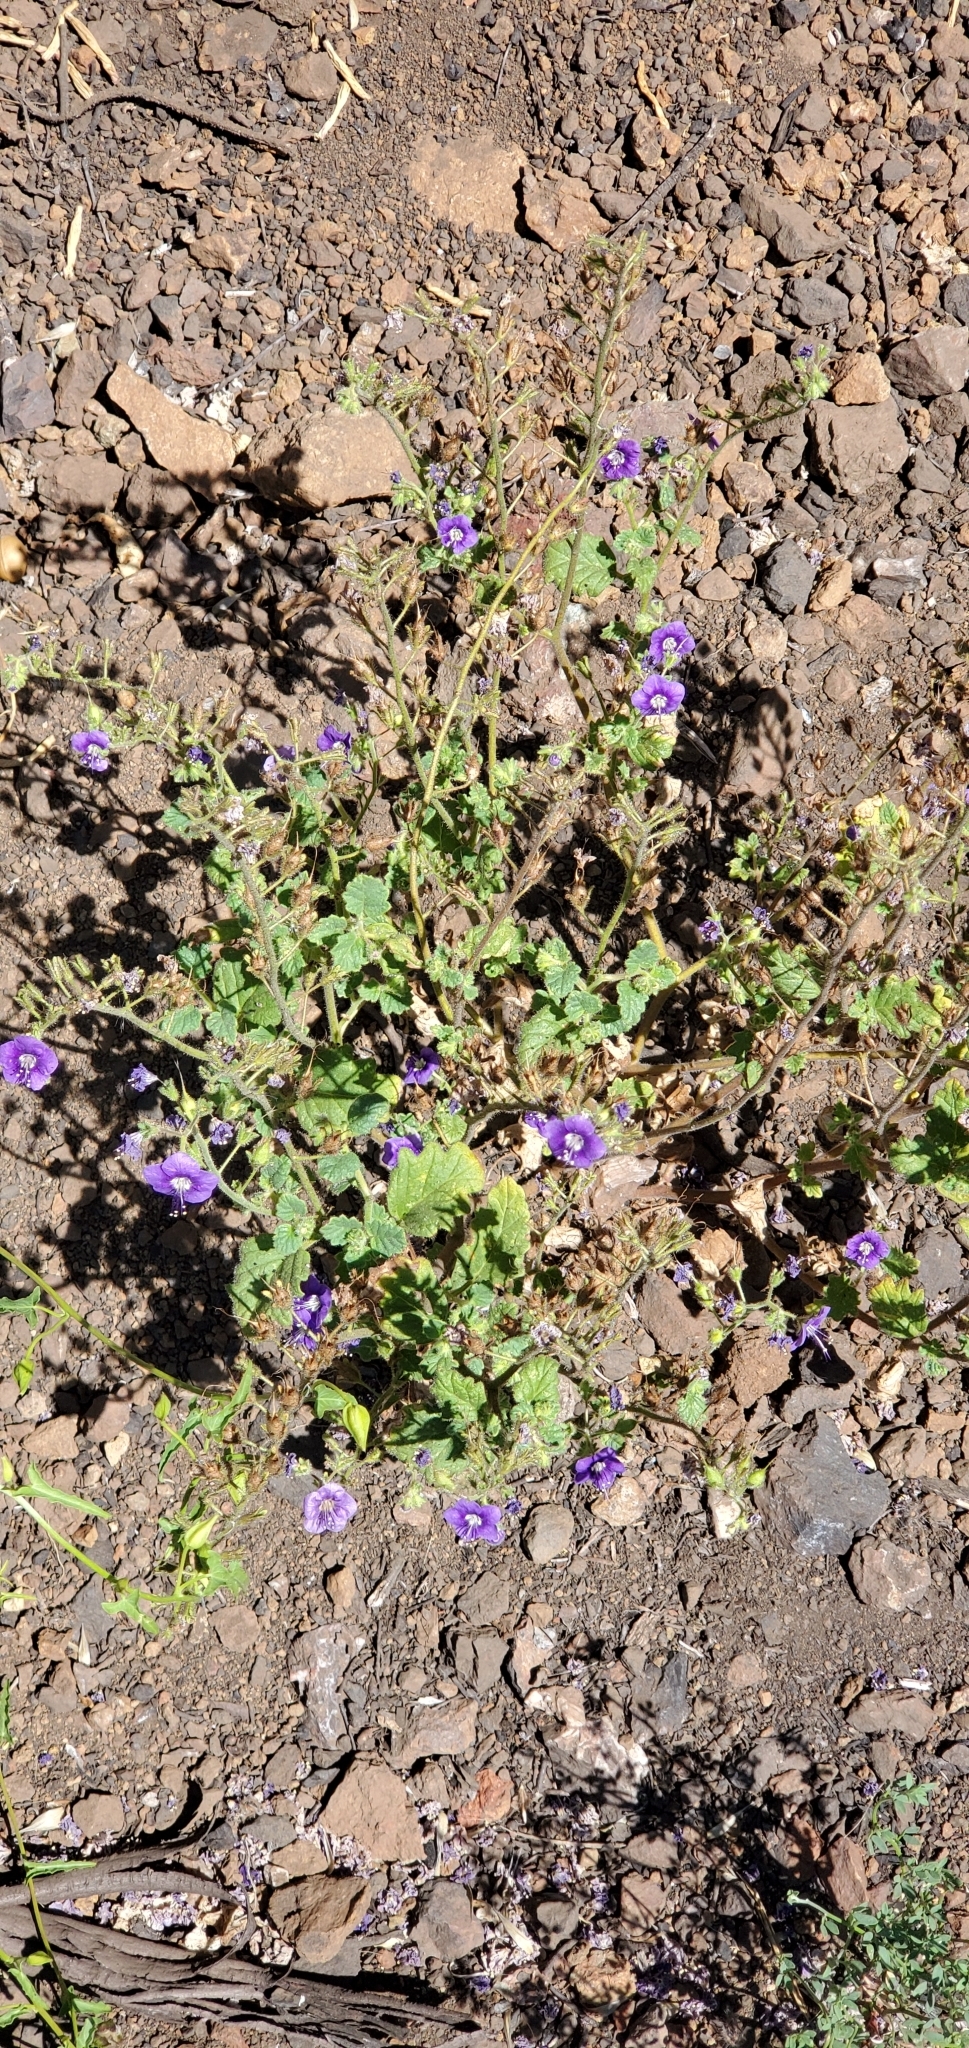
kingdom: Plantae
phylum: Tracheophyta
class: Magnoliopsida
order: Boraginales
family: Hydrophyllaceae
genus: Phacelia
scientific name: Phacelia parryi
